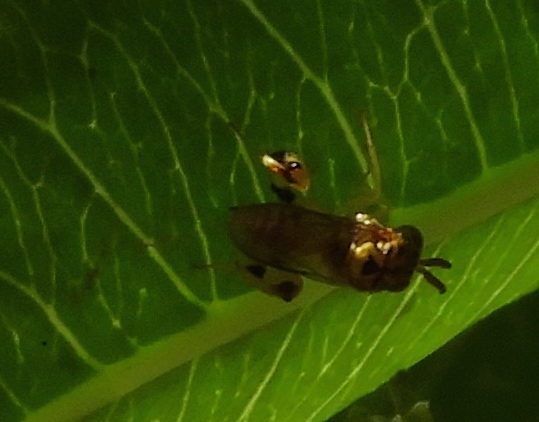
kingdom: Animalia
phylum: Arthropoda
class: Insecta
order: Hymenoptera
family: Chalcididae
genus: Conura
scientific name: Conura
